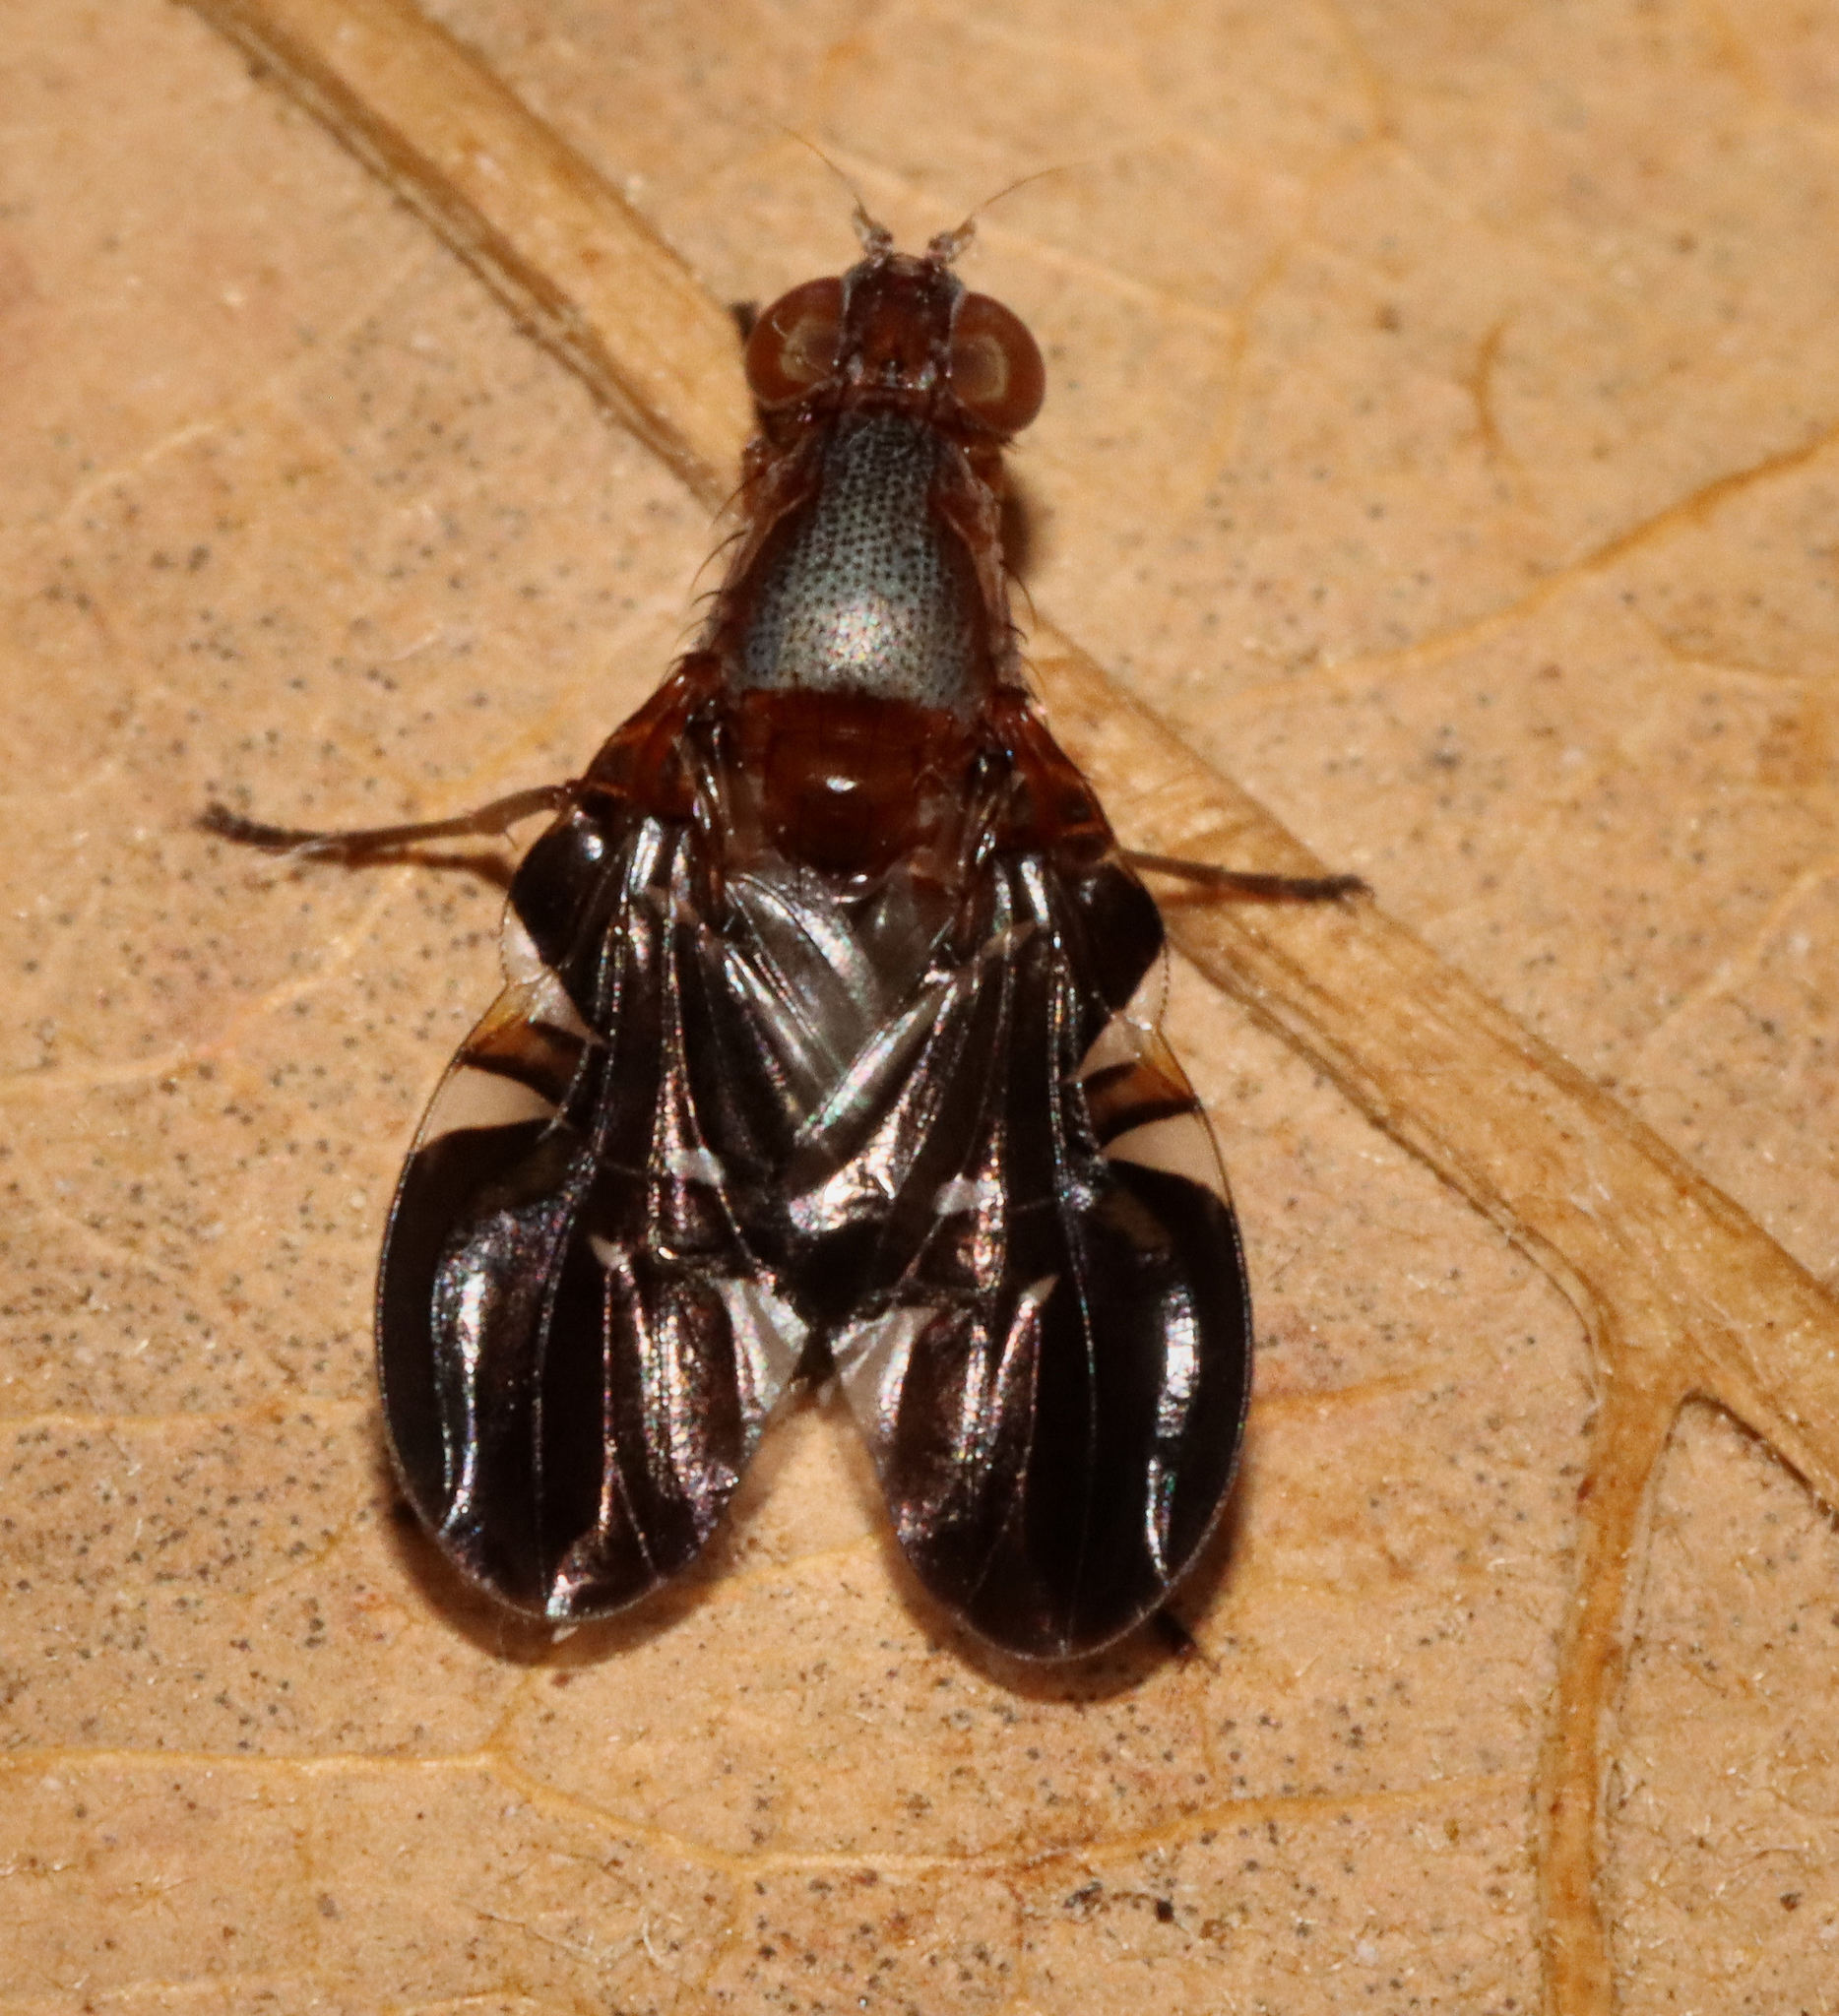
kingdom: Animalia
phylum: Arthropoda
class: Insecta
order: Diptera
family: Ulidiidae
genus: Delphinia
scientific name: Delphinia picta
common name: Common picture-winged fly
